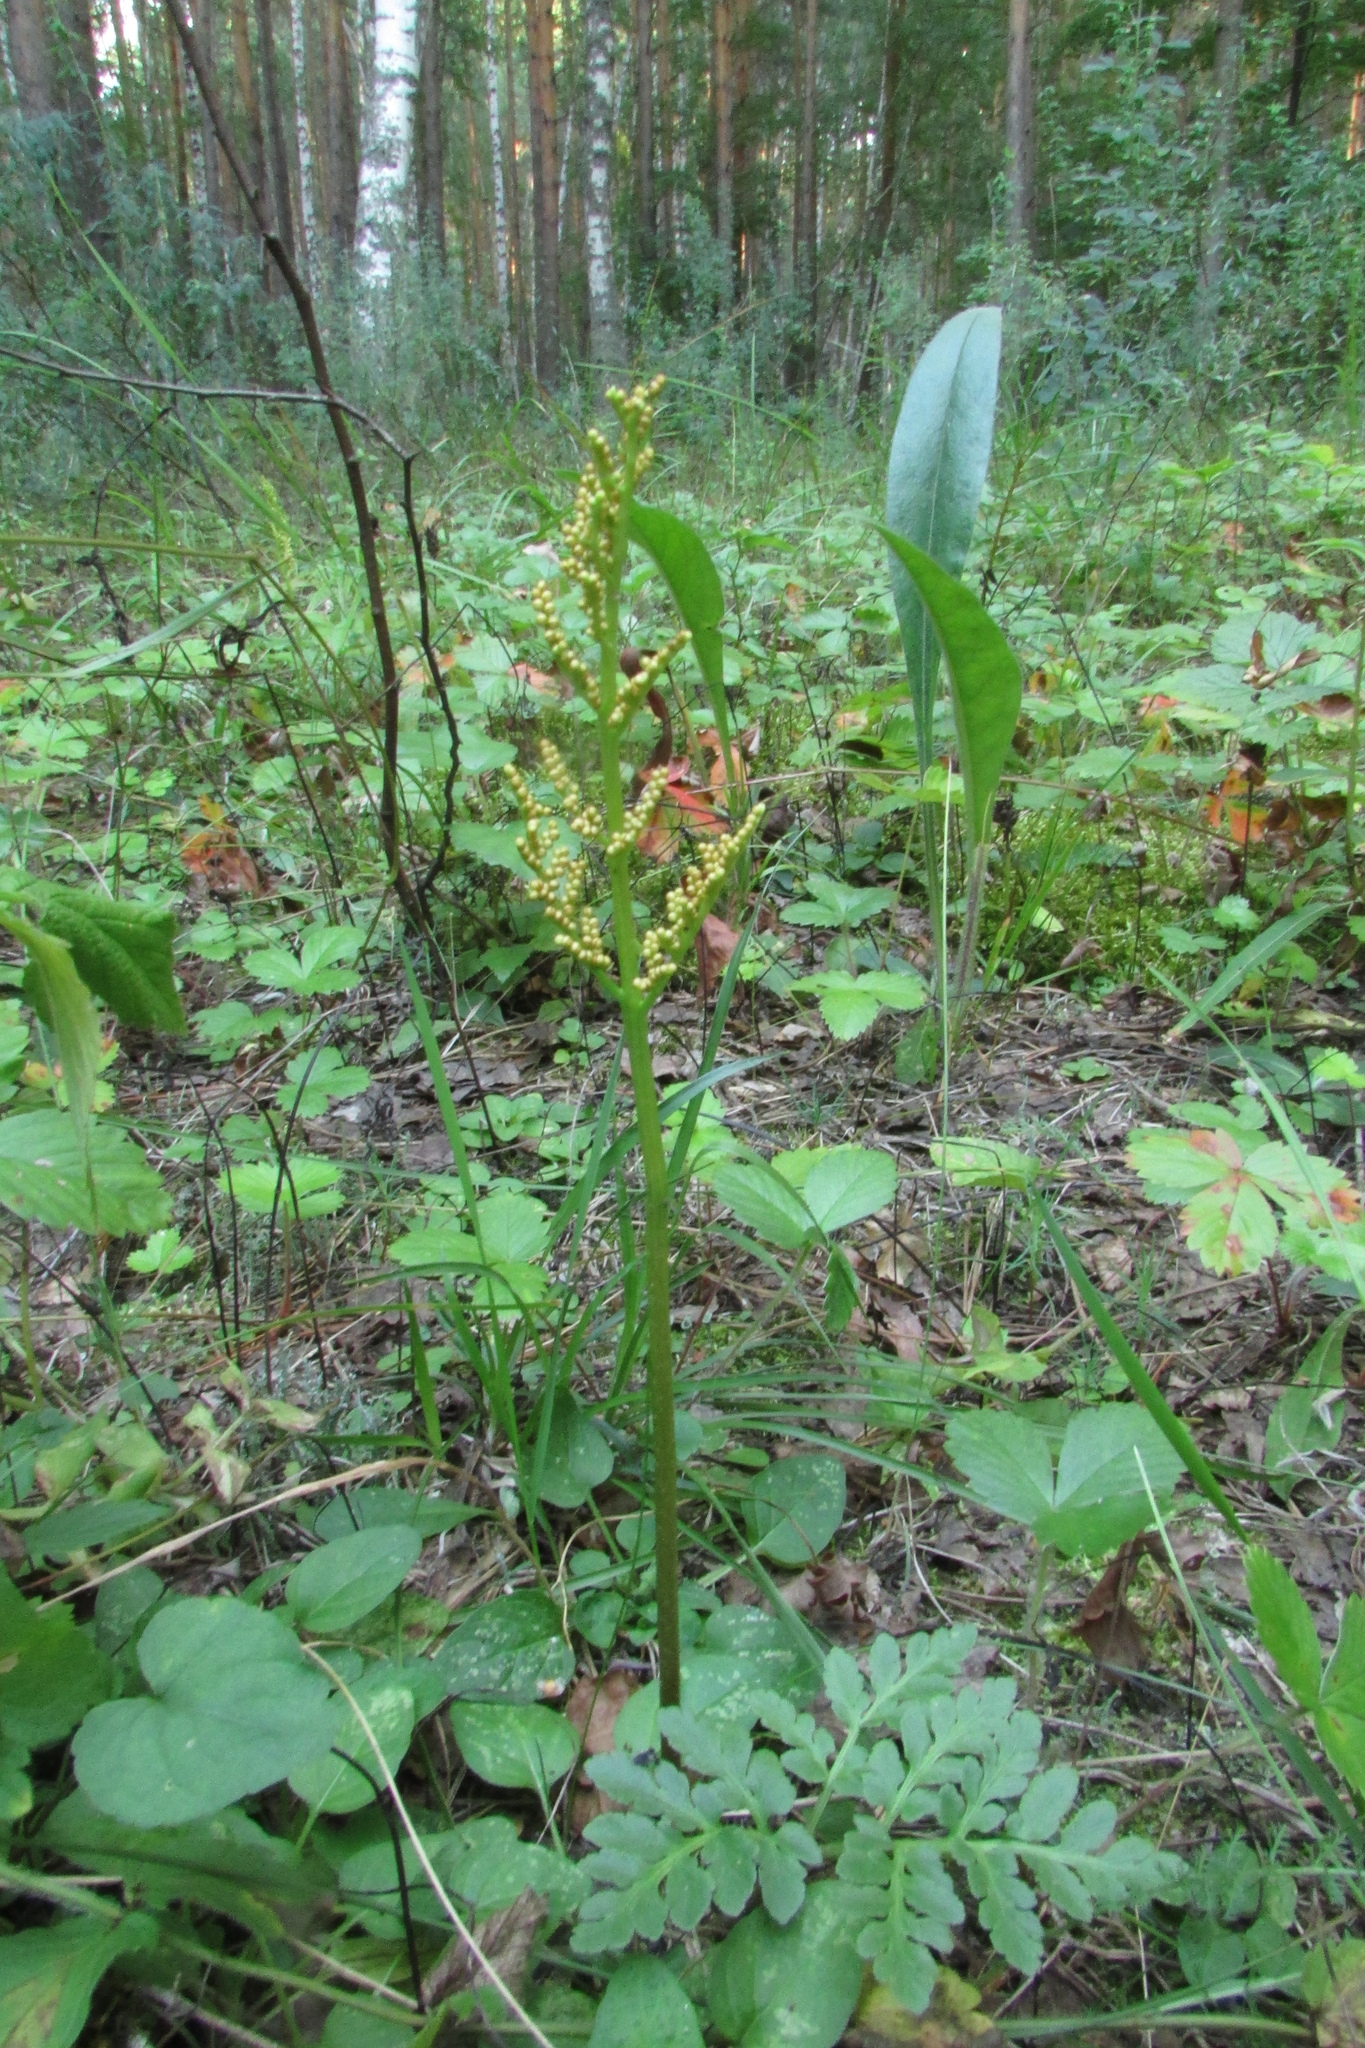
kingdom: Plantae
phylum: Tracheophyta
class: Polypodiopsida
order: Ophioglossales
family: Ophioglossaceae
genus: Sceptridium
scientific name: Sceptridium multifidum
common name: Leathery grape fern
